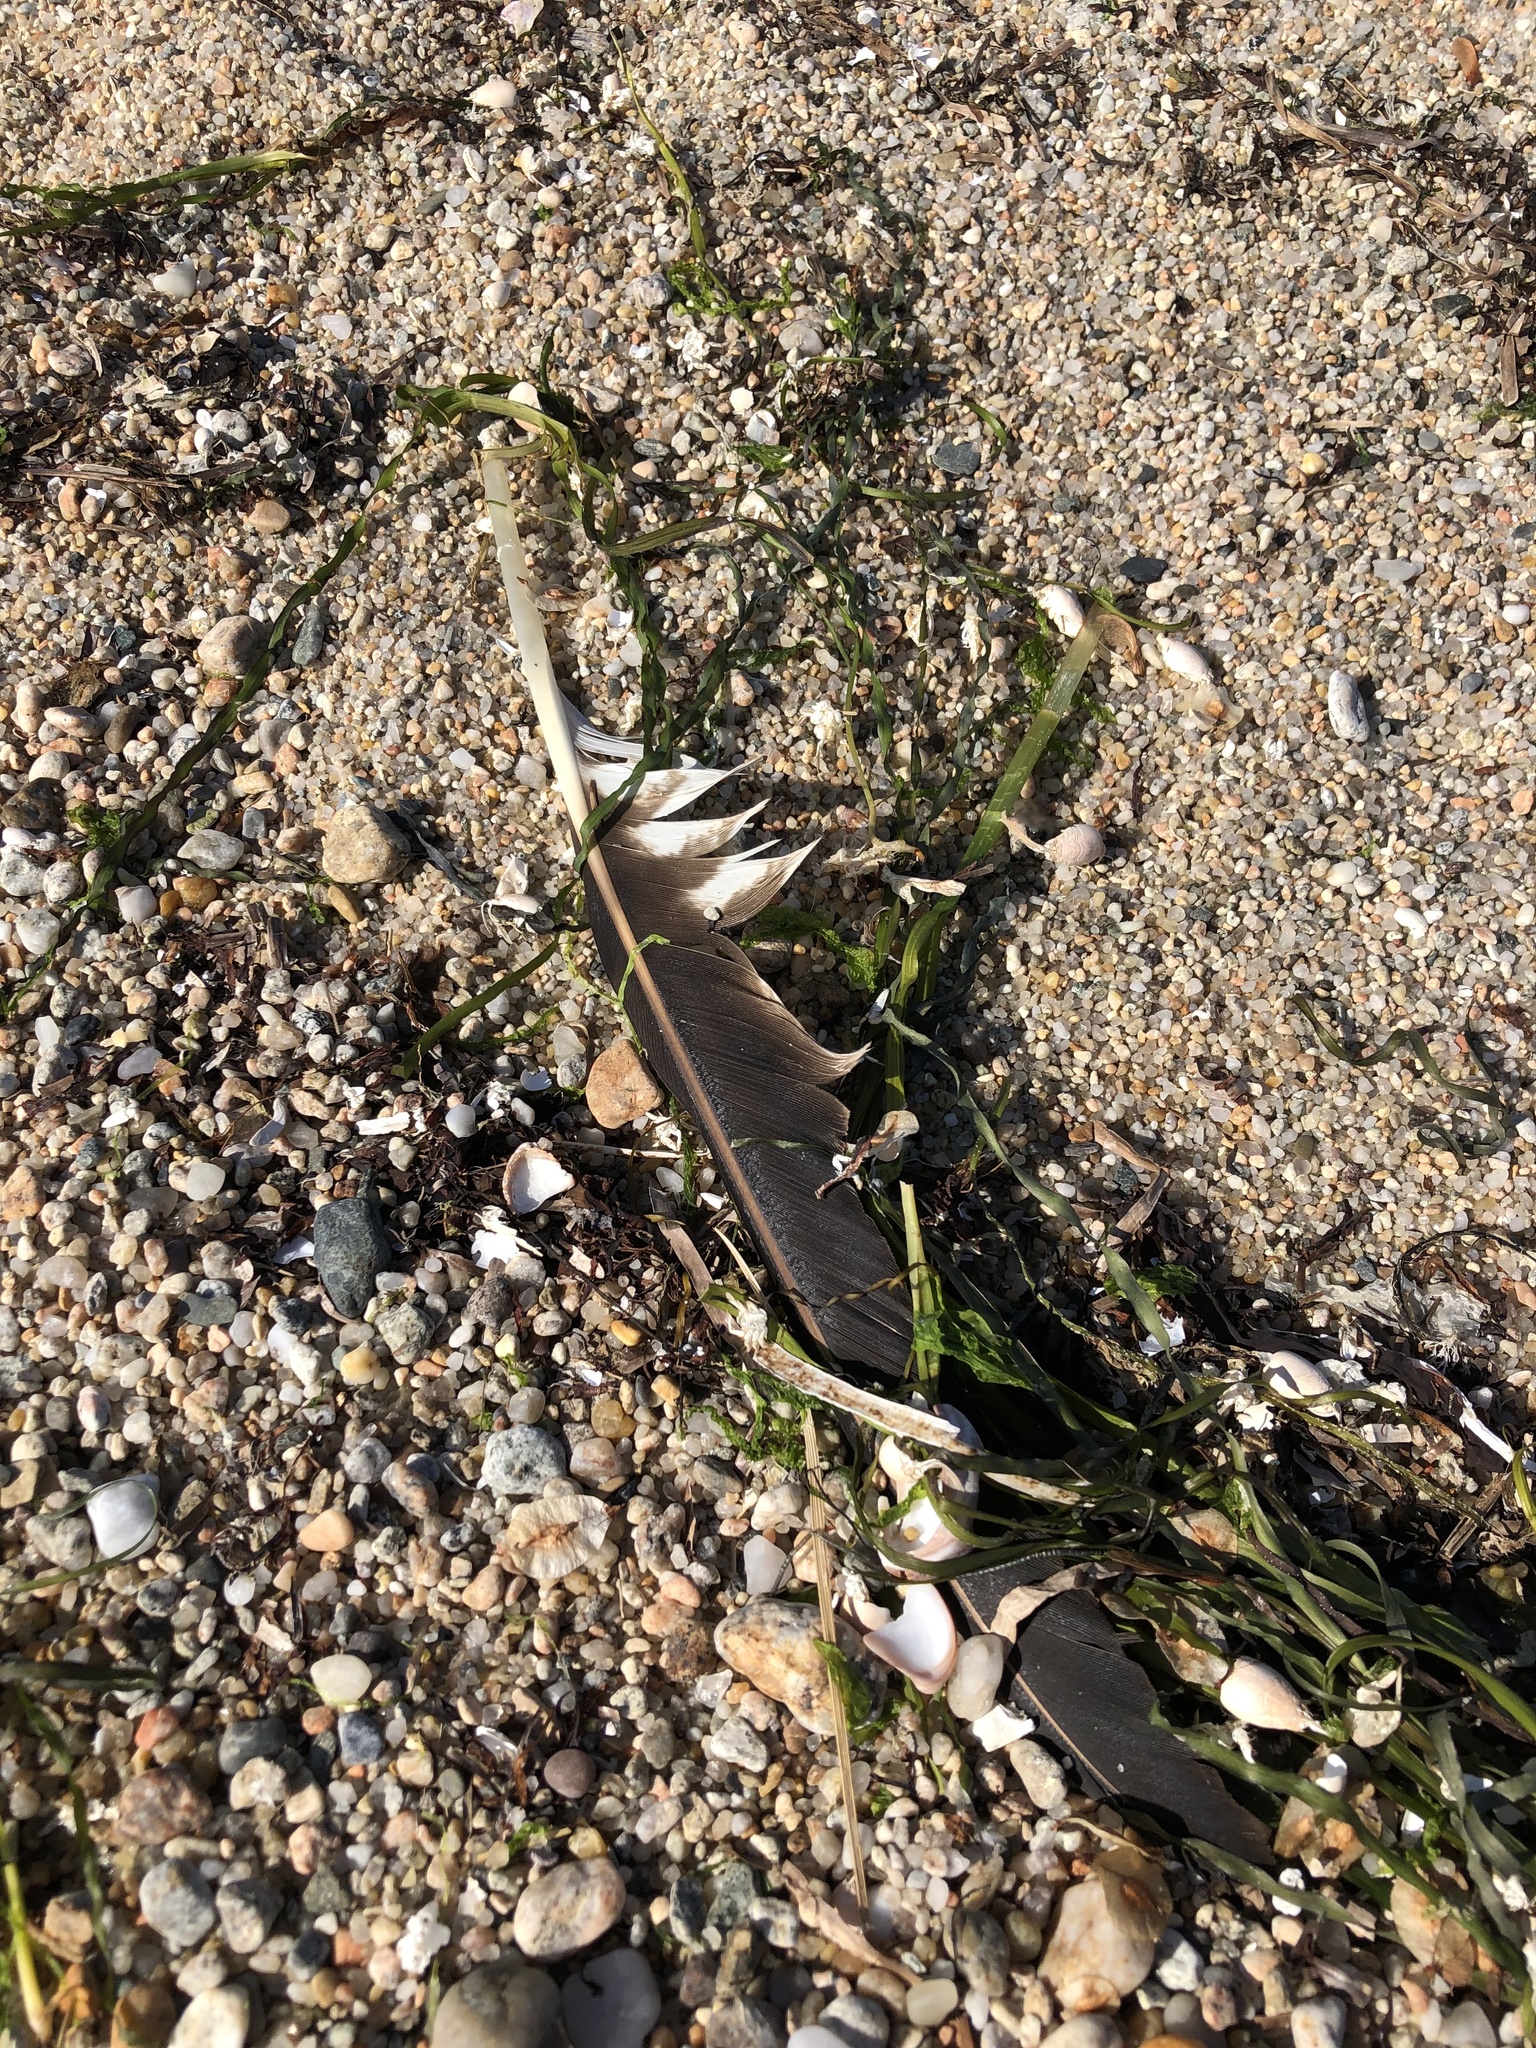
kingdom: Animalia
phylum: Chordata
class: Aves
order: Accipitriformes
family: Pandionidae
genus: Pandion
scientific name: Pandion haliaetus
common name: Osprey
